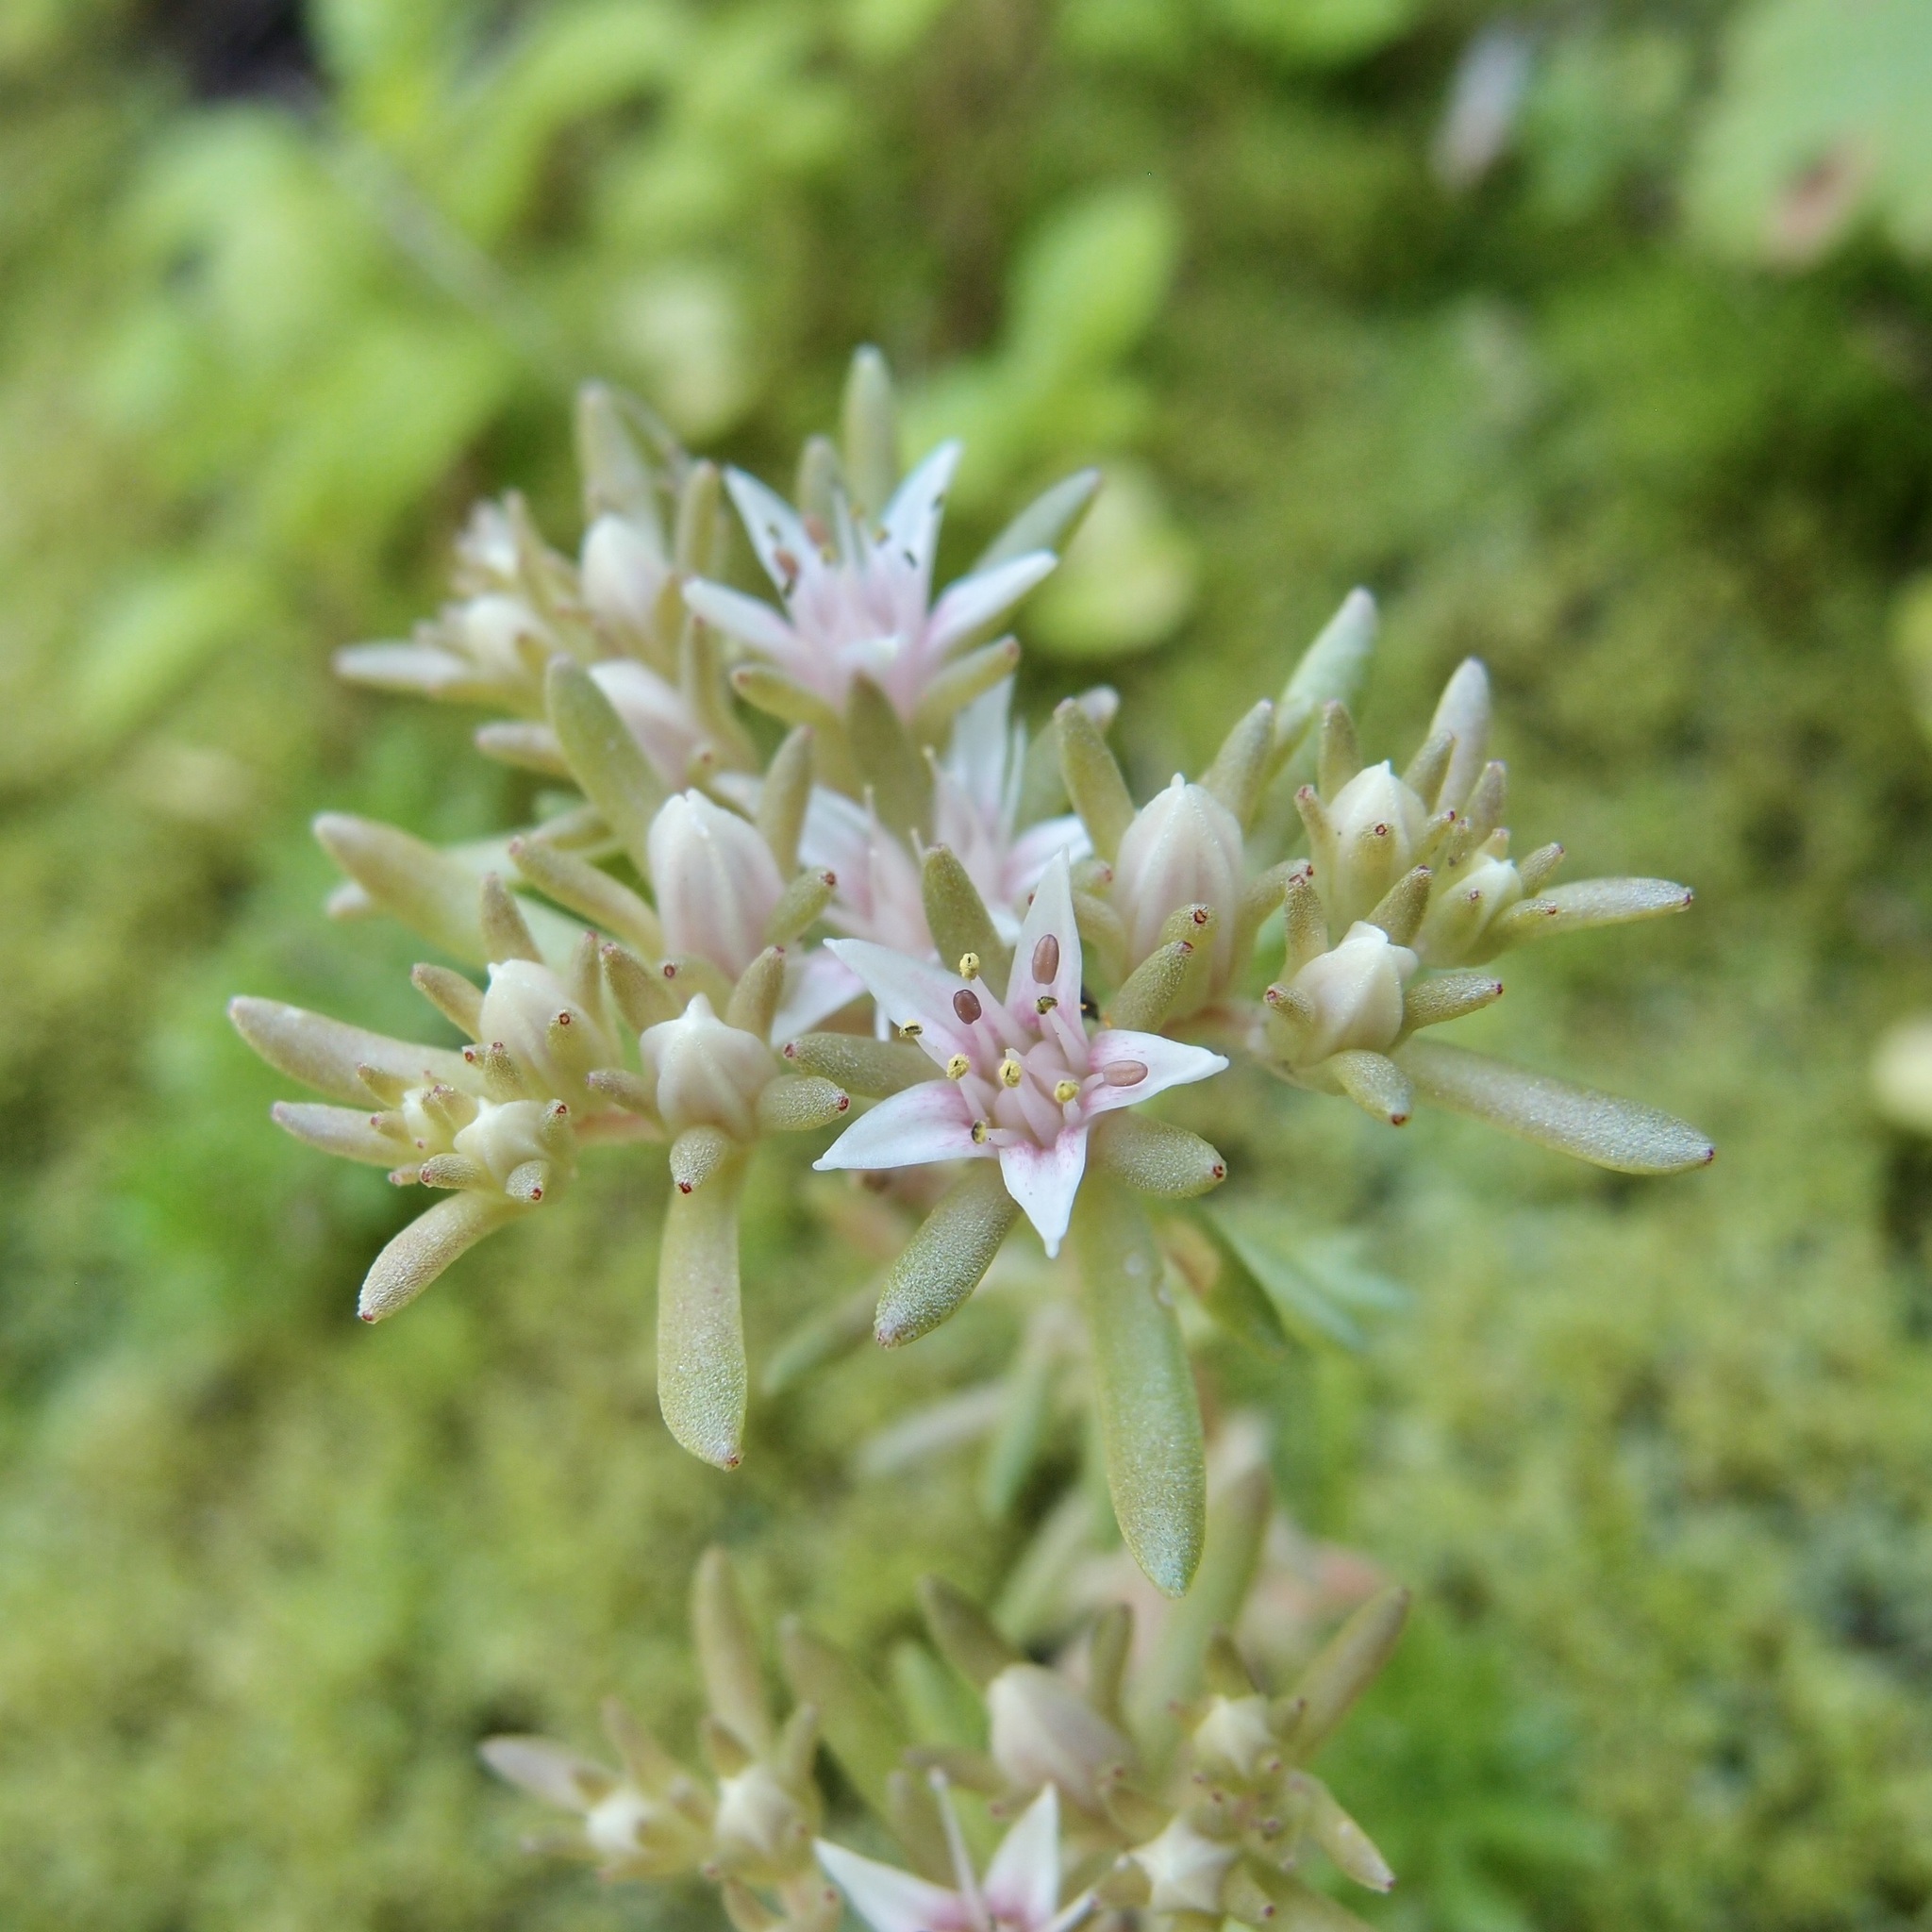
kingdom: Plantae
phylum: Tracheophyta
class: Magnoliopsida
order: Saxifragales
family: Crassulaceae
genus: Sedum
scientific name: Sedum stelliforme
